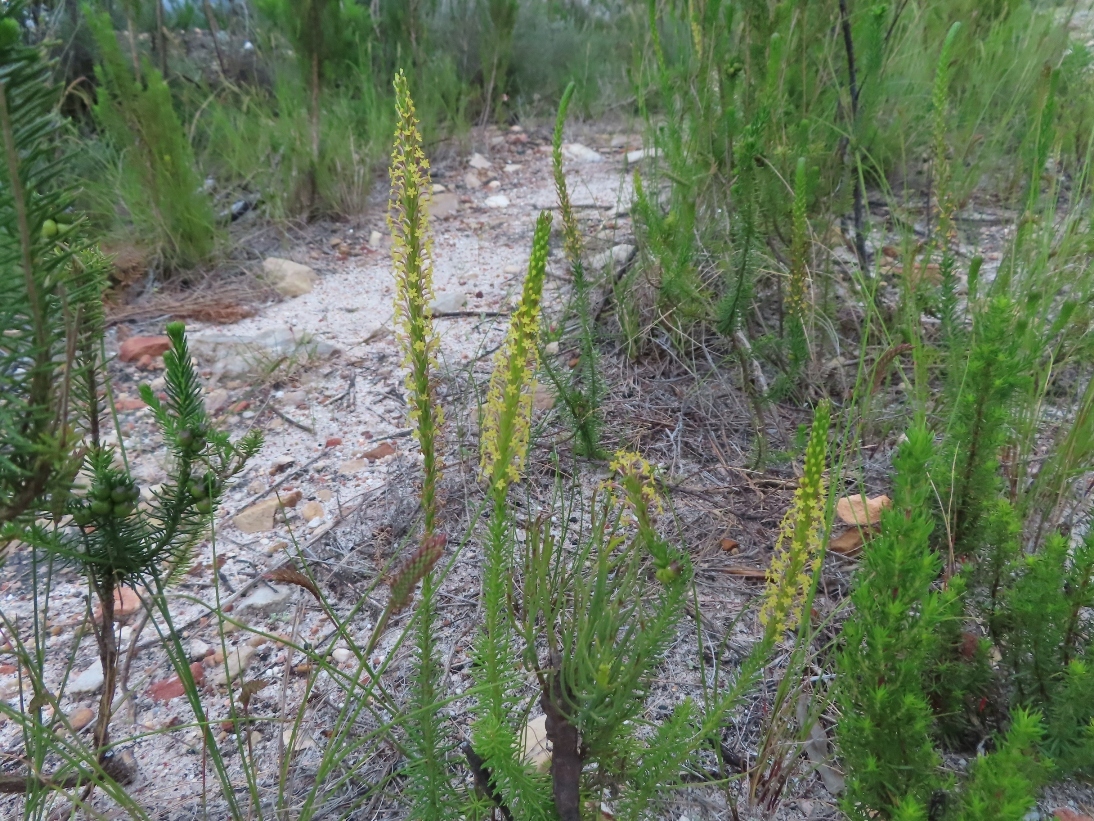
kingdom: Plantae
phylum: Tracheophyta
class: Magnoliopsida
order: Lamiales
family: Scrophulariaceae
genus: Microdon
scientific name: Microdon dubius
